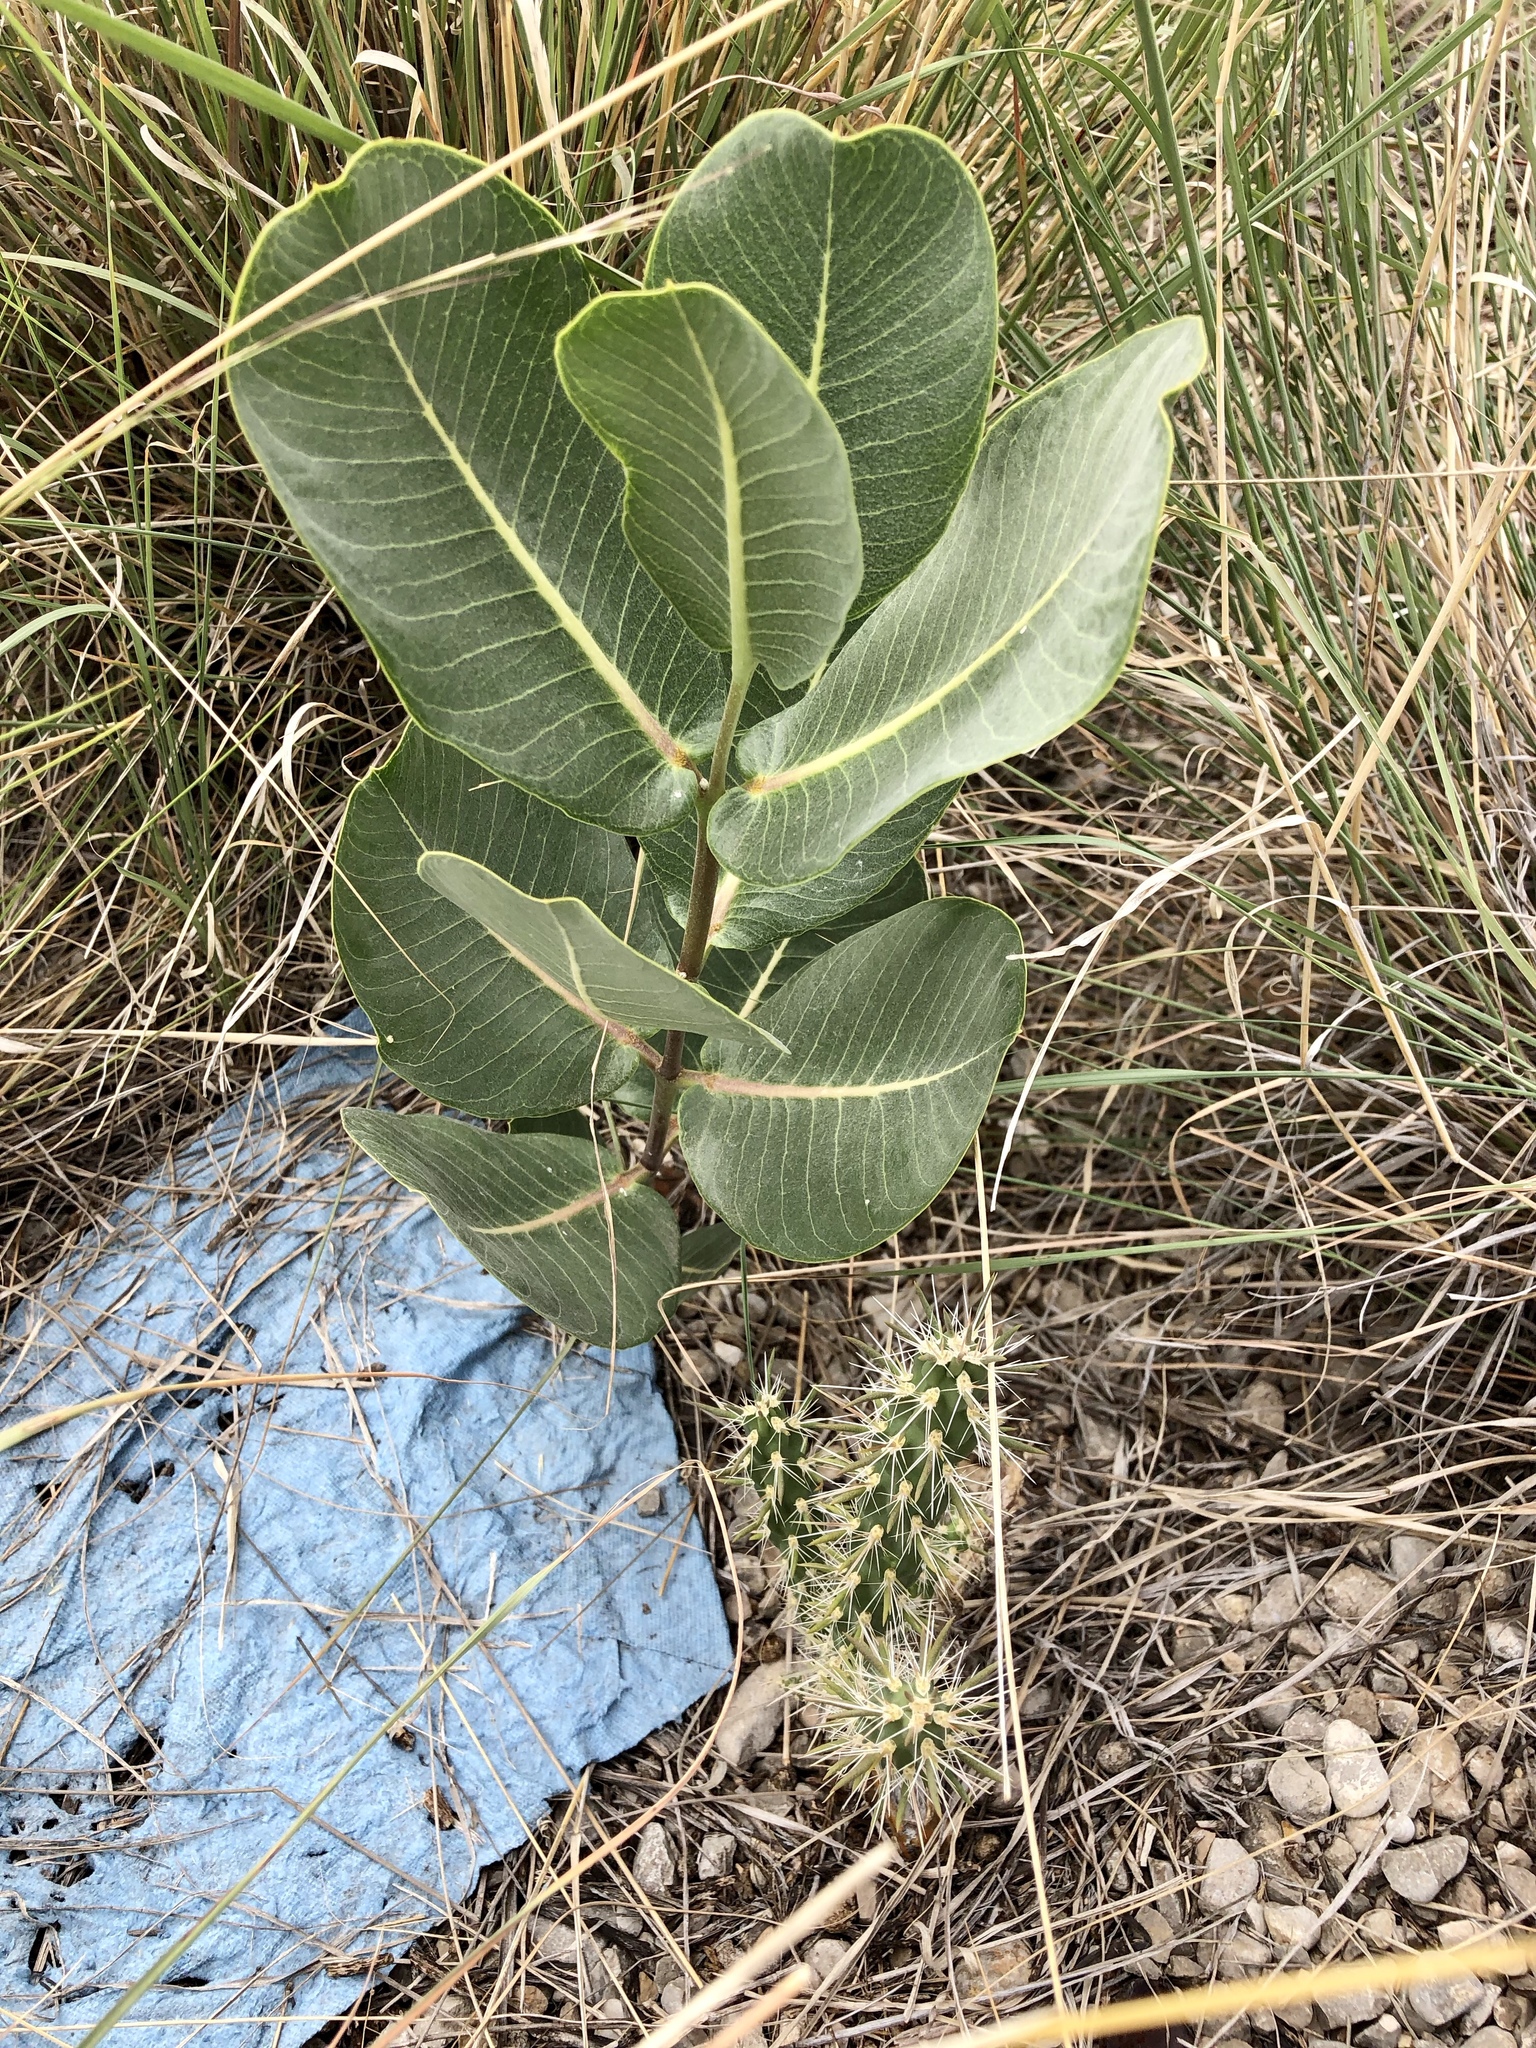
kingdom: Plantae
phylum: Tracheophyta
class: Magnoliopsida
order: Gentianales
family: Apocynaceae
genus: Asclepias
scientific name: Asclepias latifolia
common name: Broadleaf milkweed
